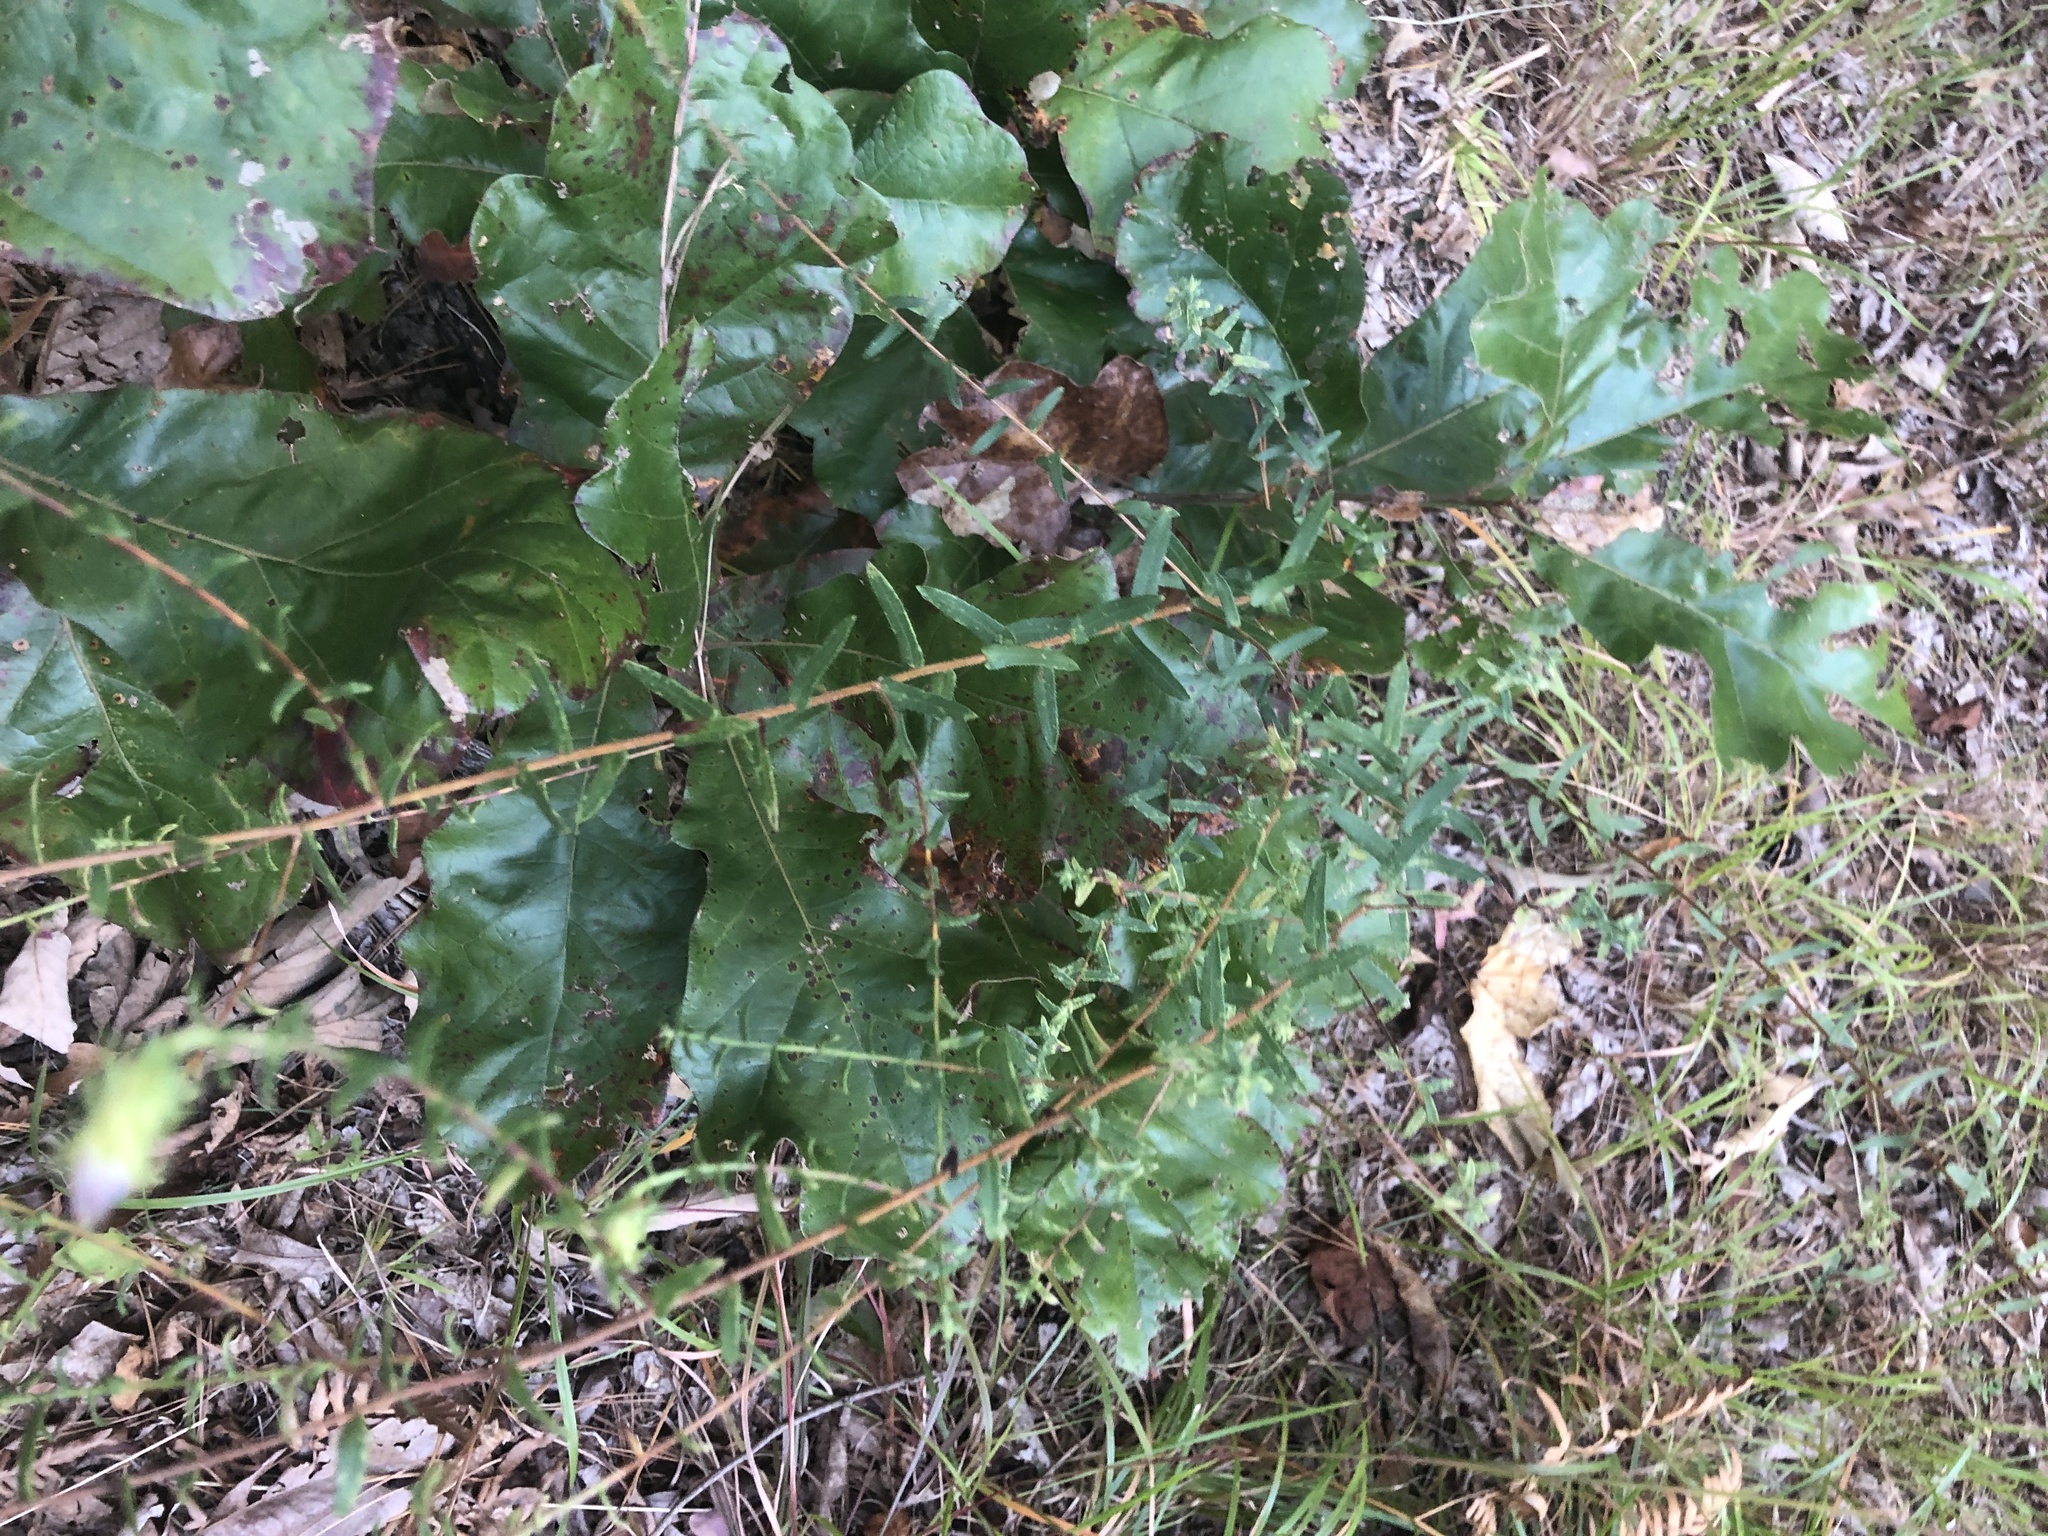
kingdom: Plantae
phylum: Tracheophyta
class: Magnoliopsida
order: Asterales
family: Asteraceae
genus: Symphyotrichum
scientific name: Symphyotrichum grandiflorum
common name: Big-head aster
